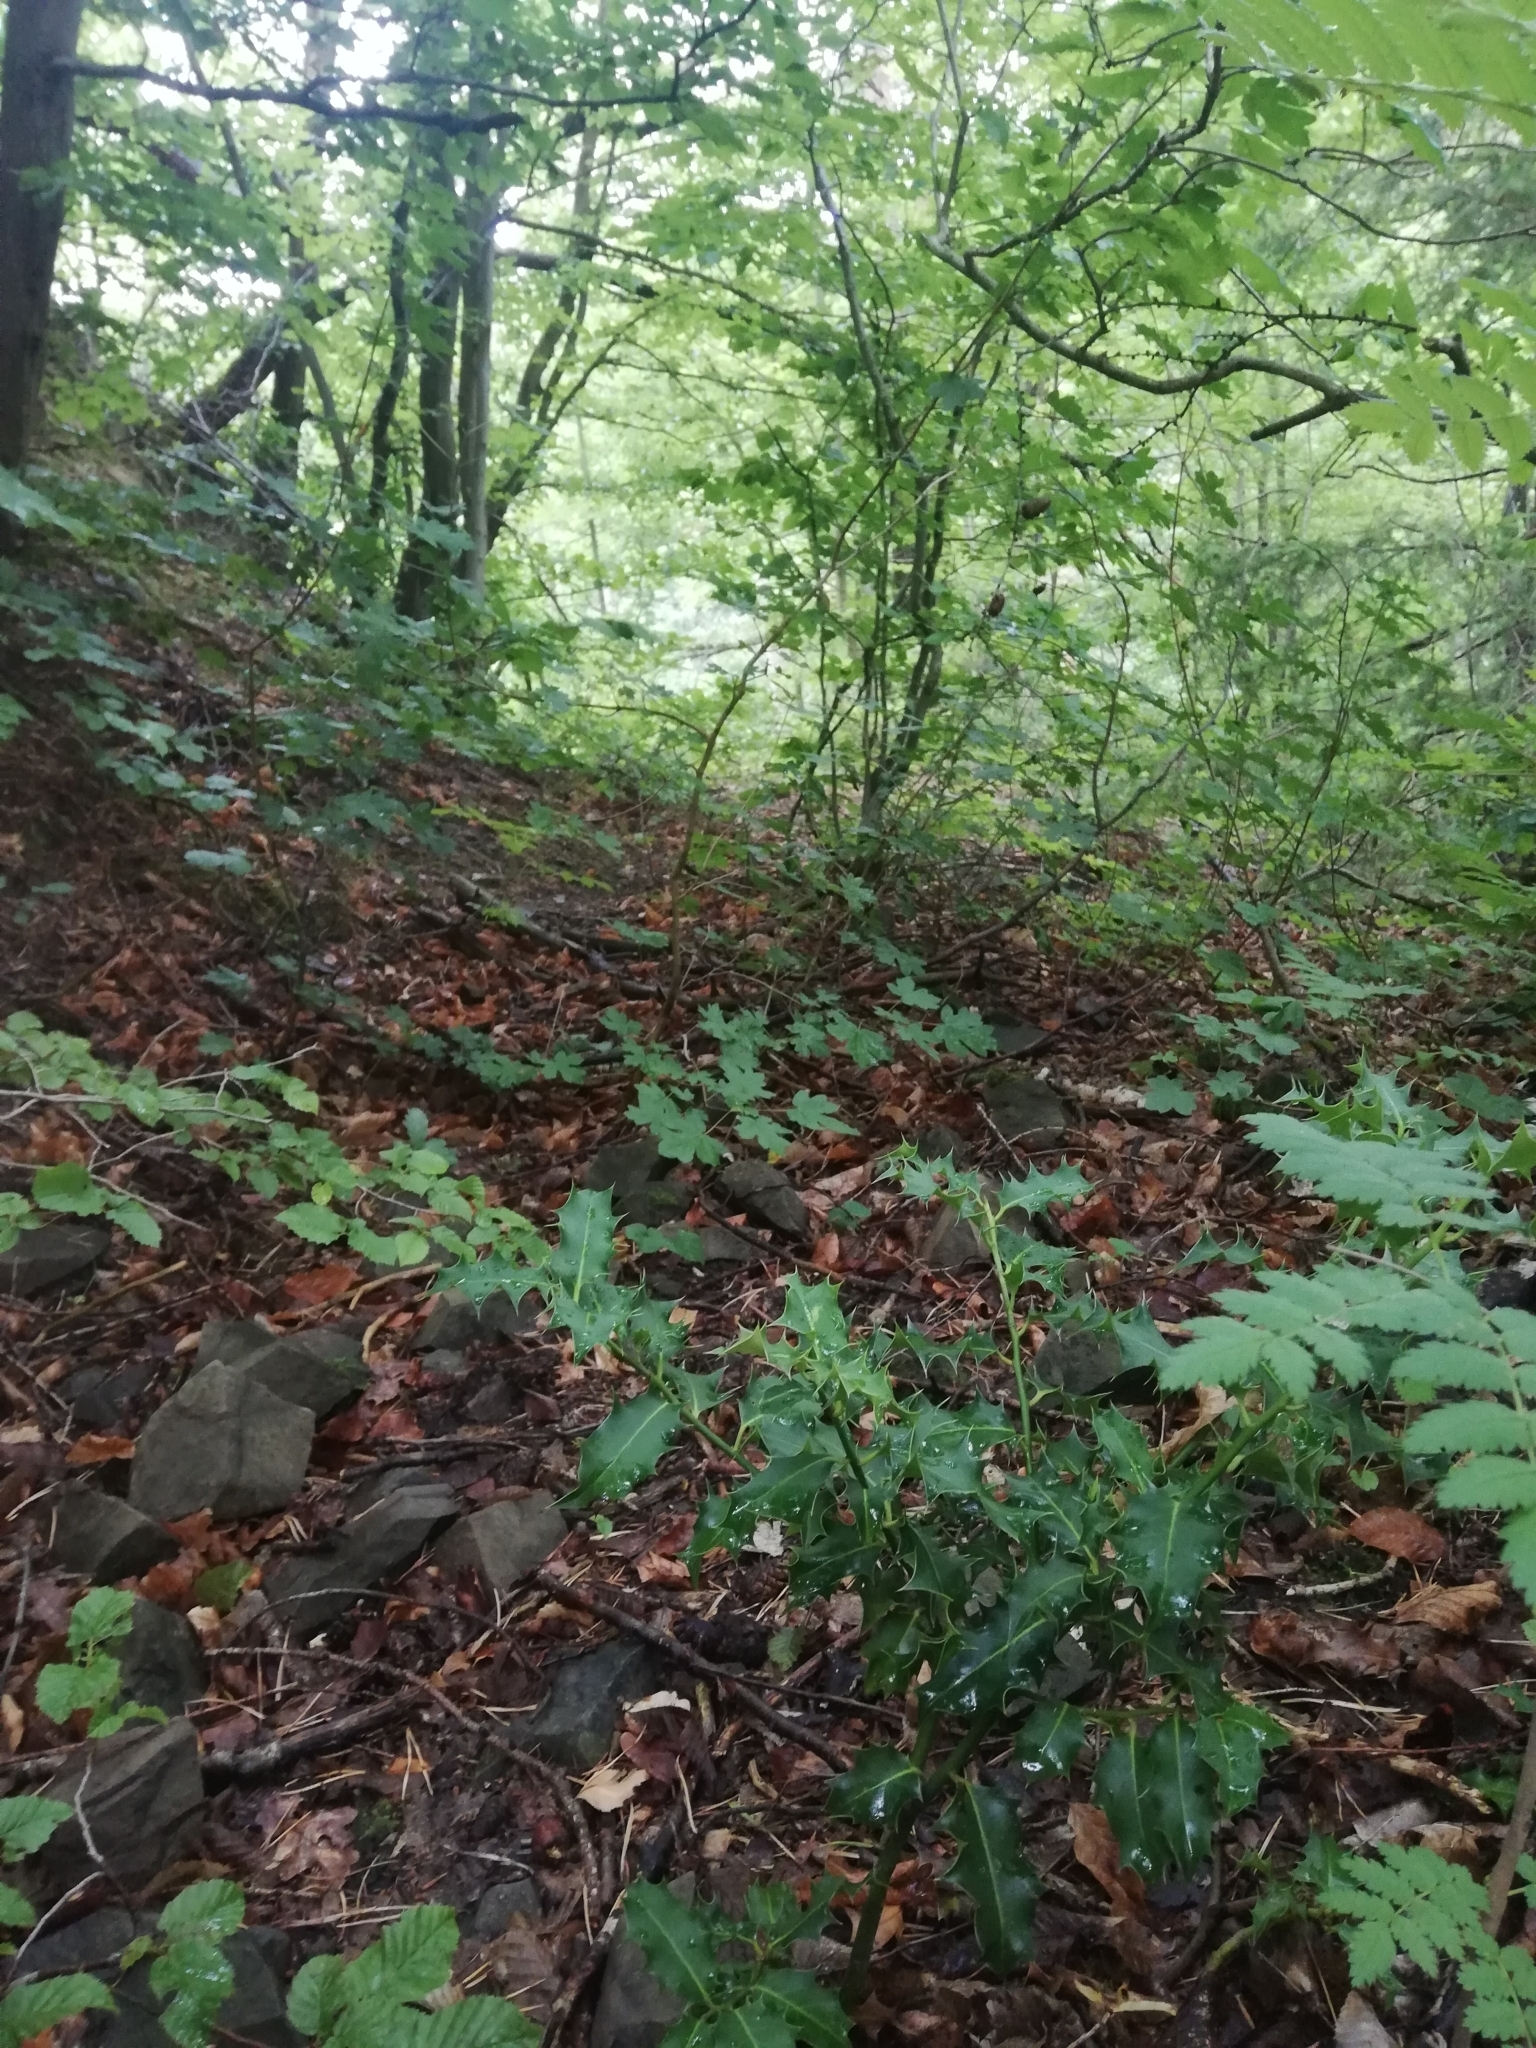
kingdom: Plantae
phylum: Tracheophyta
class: Magnoliopsida
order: Aquifoliales
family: Aquifoliaceae
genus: Ilex
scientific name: Ilex aquifolium
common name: English holly
